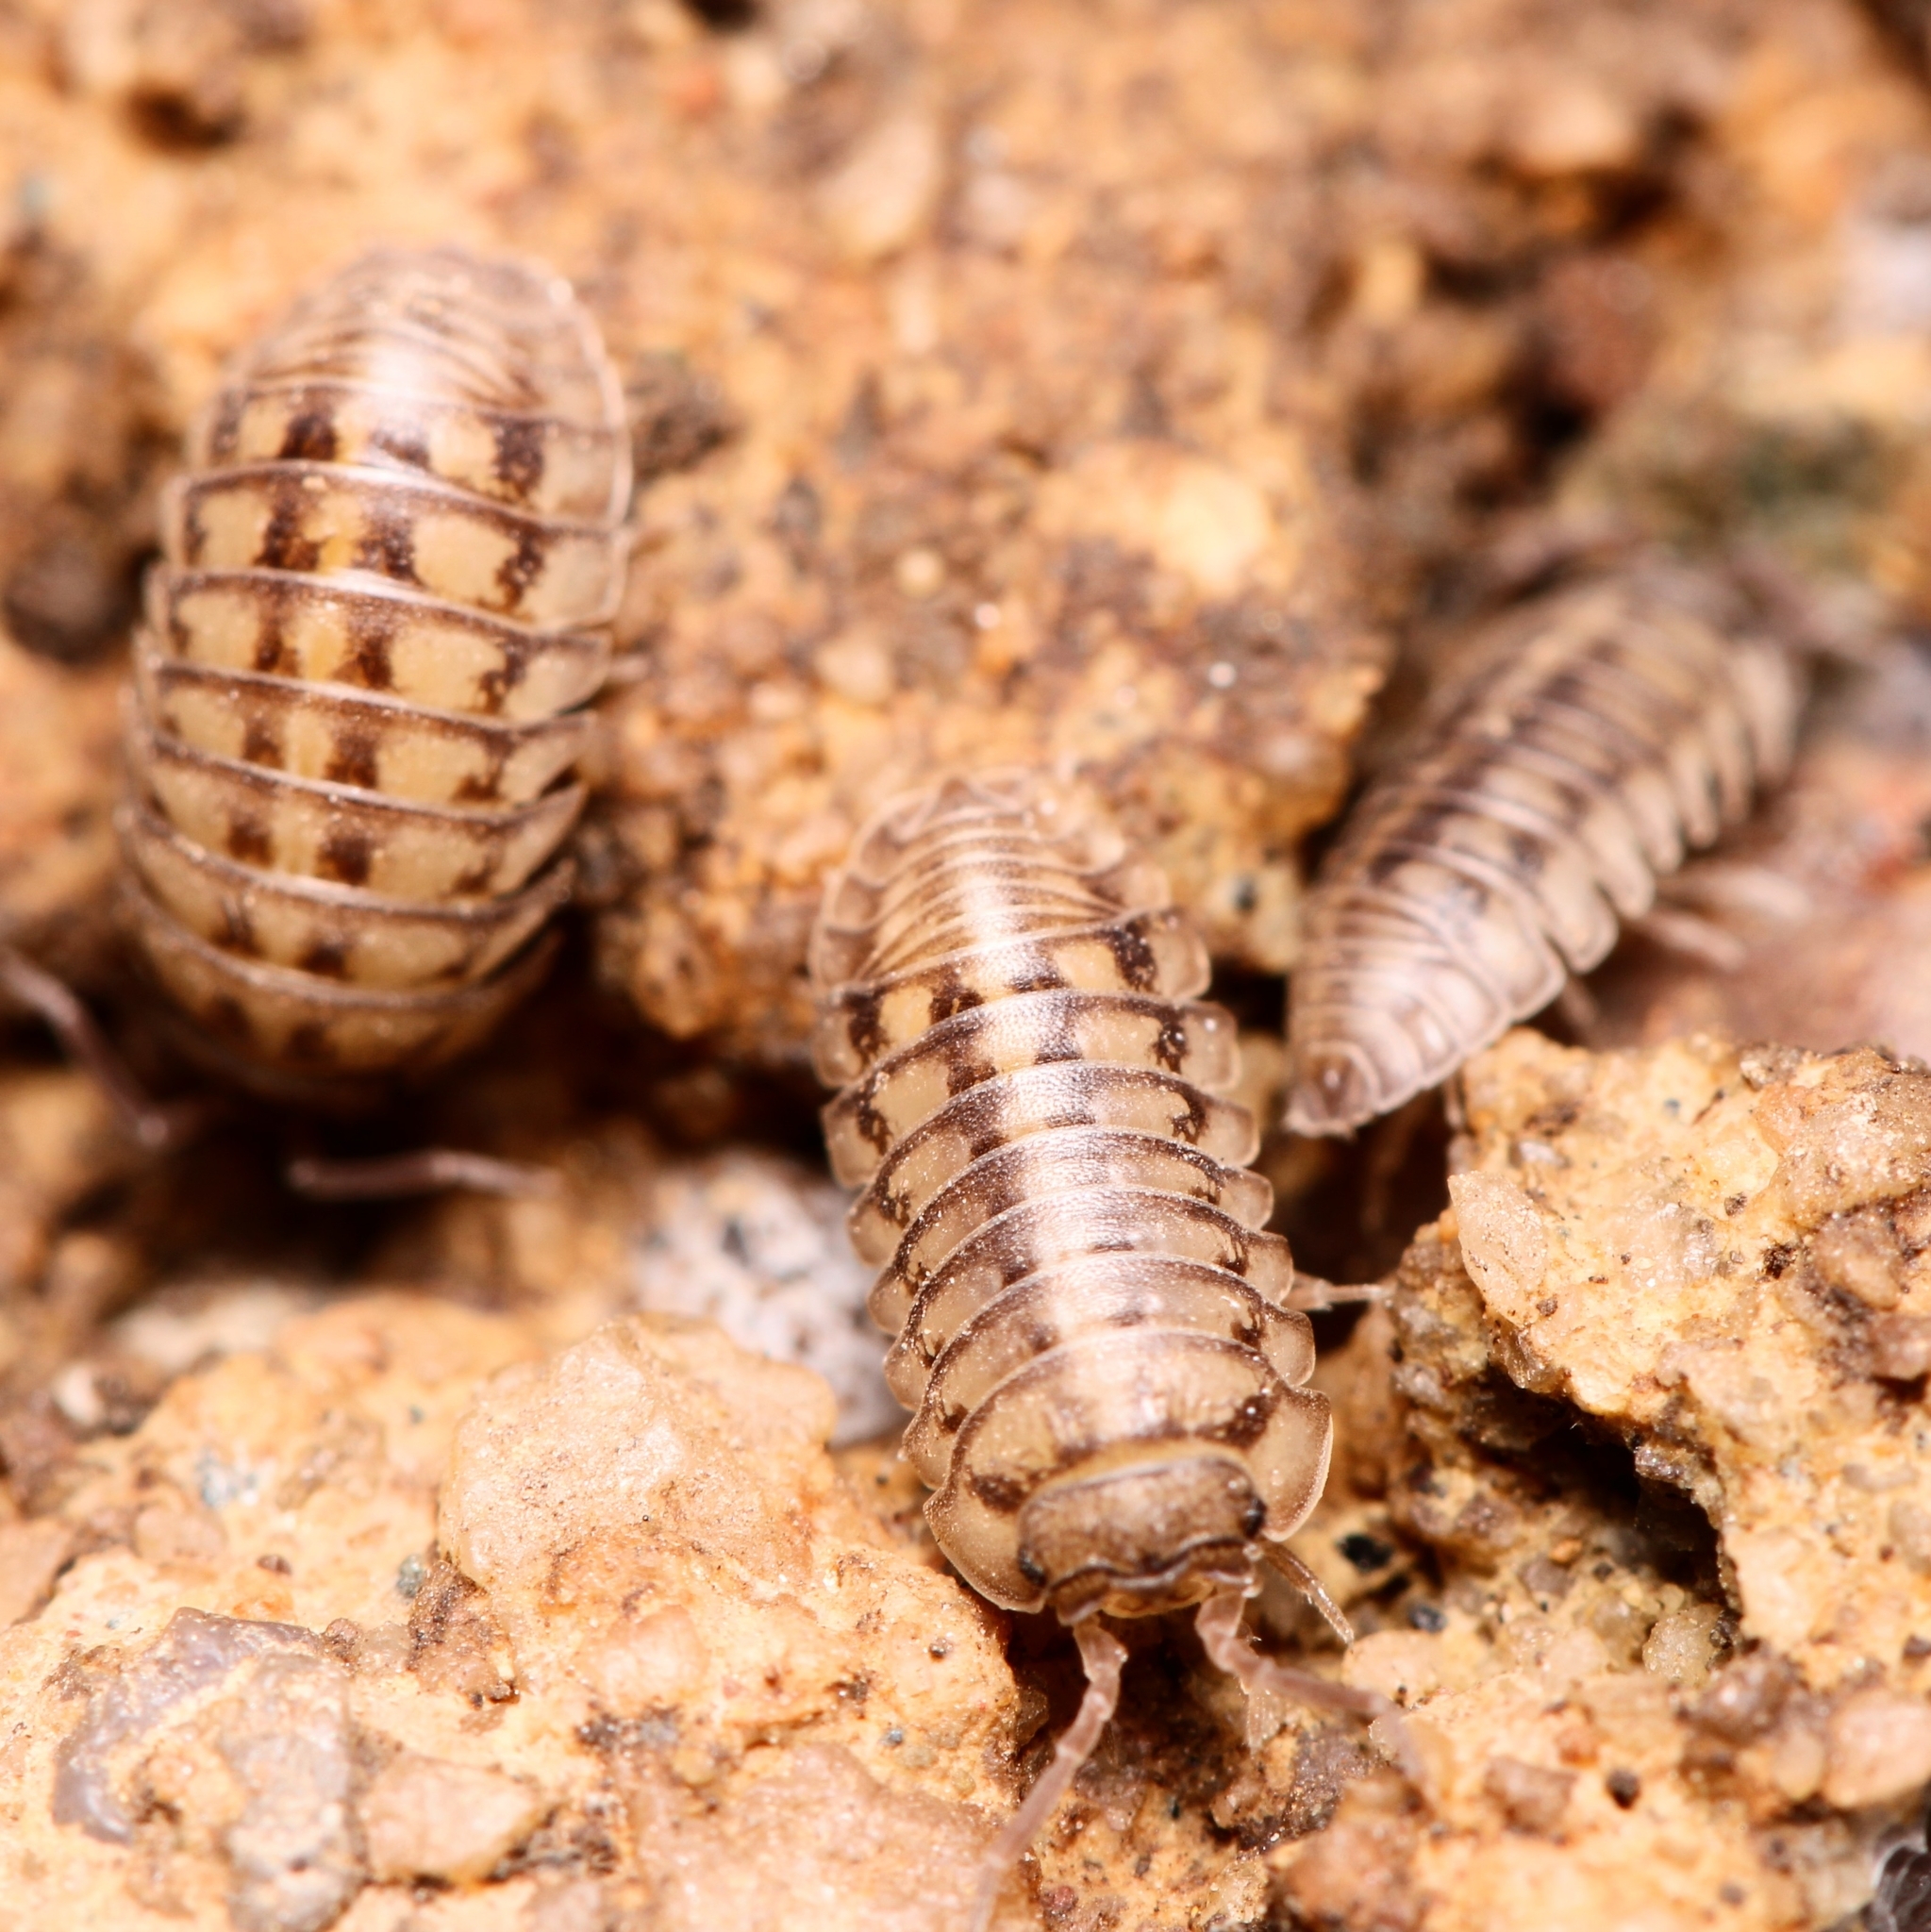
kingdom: Animalia
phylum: Arthropoda
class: Malacostraca
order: Isopoda
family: Armadillidiidae
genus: Armadillidium
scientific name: Armadillidium nasatum
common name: Isopod
